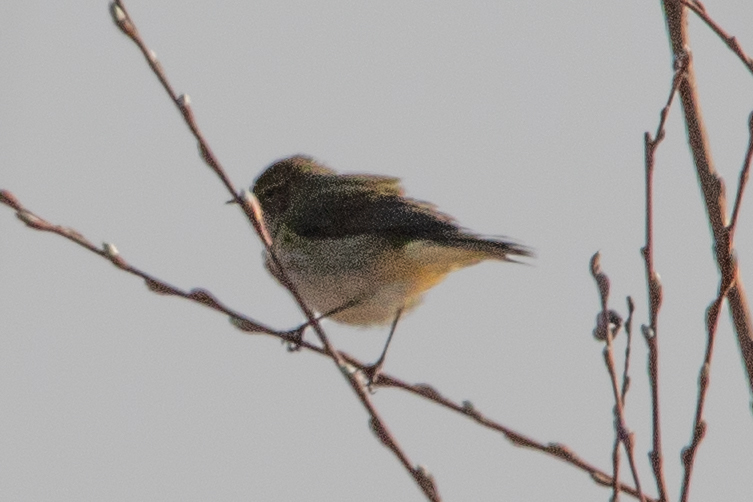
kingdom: Animalia
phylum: Chordata
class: Aves
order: Passeriformes
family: Phylloscopidae
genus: Phylloscopus
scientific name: Phylloscopus collybita
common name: Common chiffchaff
